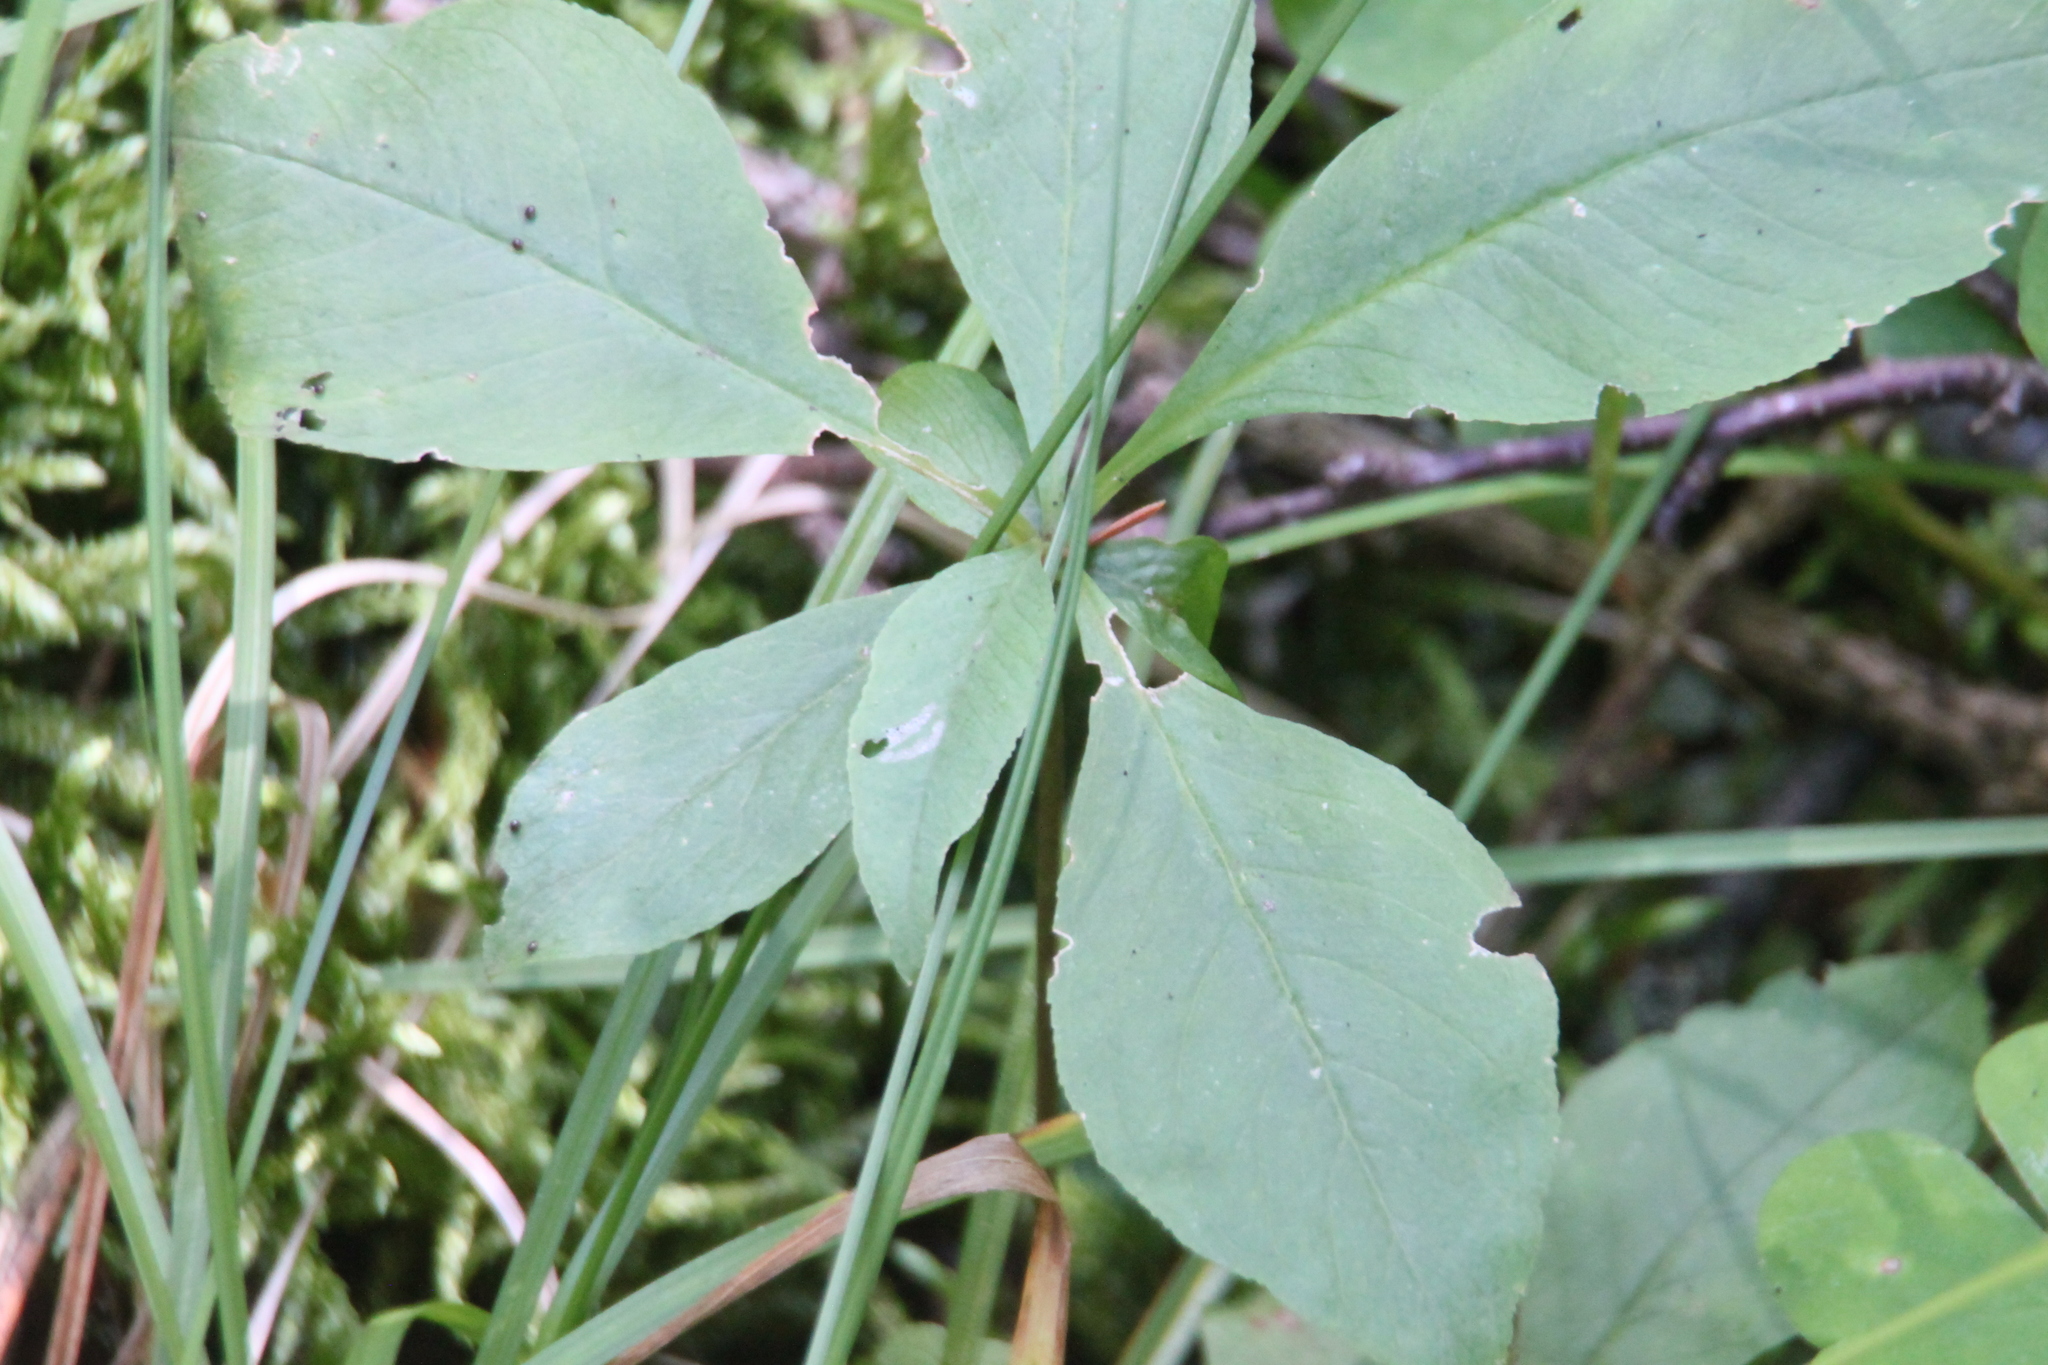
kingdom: Plantae
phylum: Tracheophyta
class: Magnoliopsida
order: Ericales
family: Primulaceae
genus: Lysimachia
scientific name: Lysimachia europaea
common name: Arctic starflower
